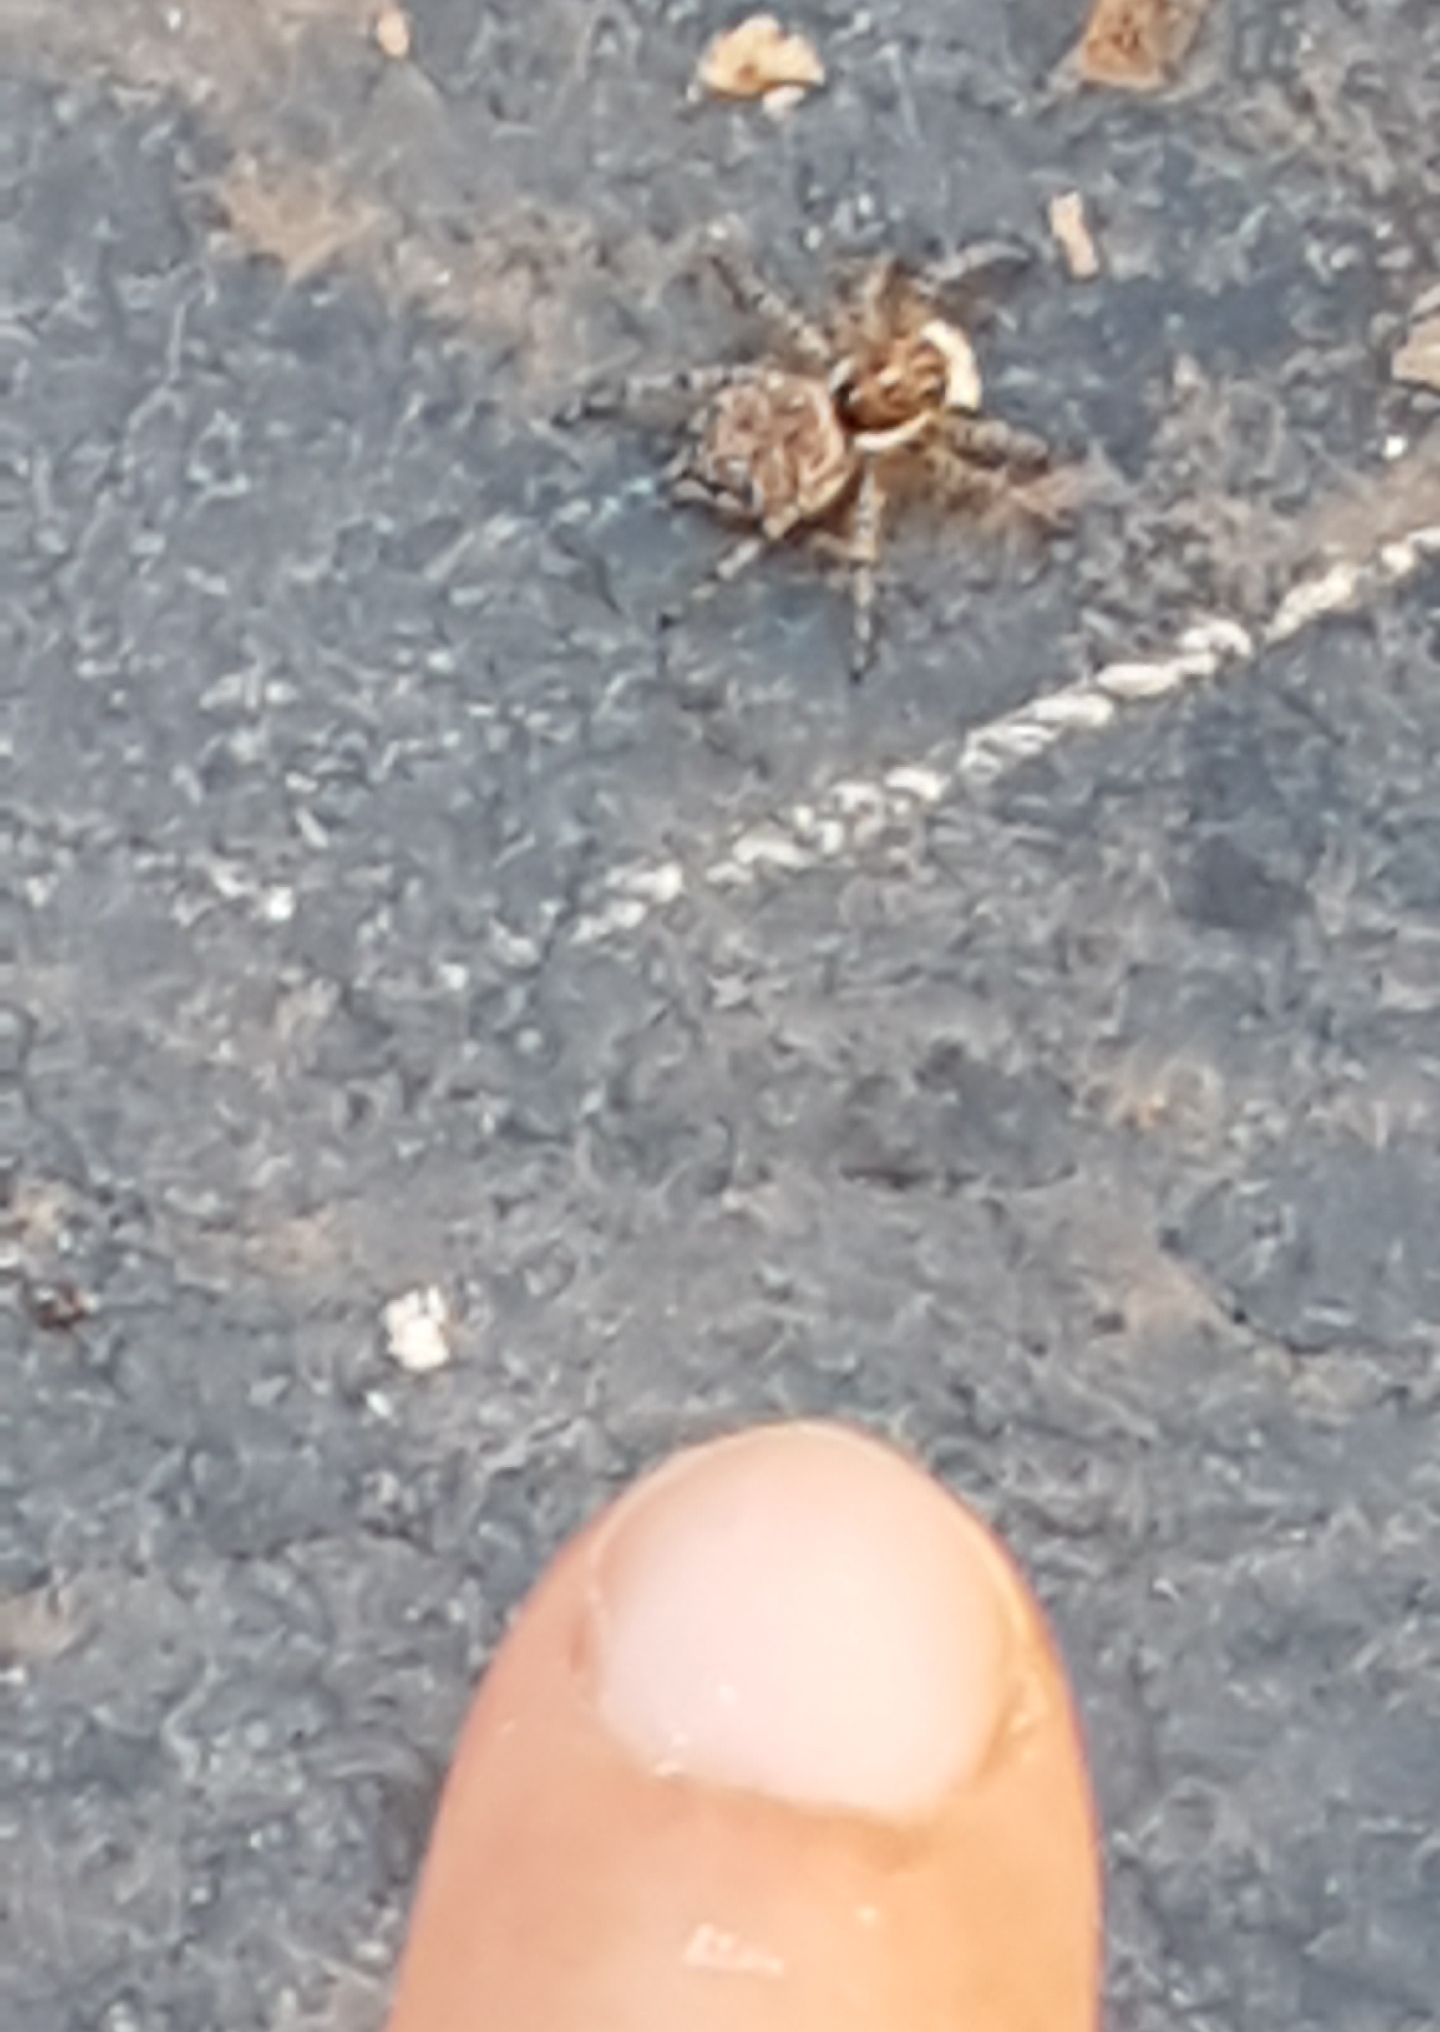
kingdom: Animalia
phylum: Arthropoda
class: Arachnida
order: Araneae
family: Salticidae
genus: Menemerus
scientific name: Menemerus semilimbatus
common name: Jumping spider
